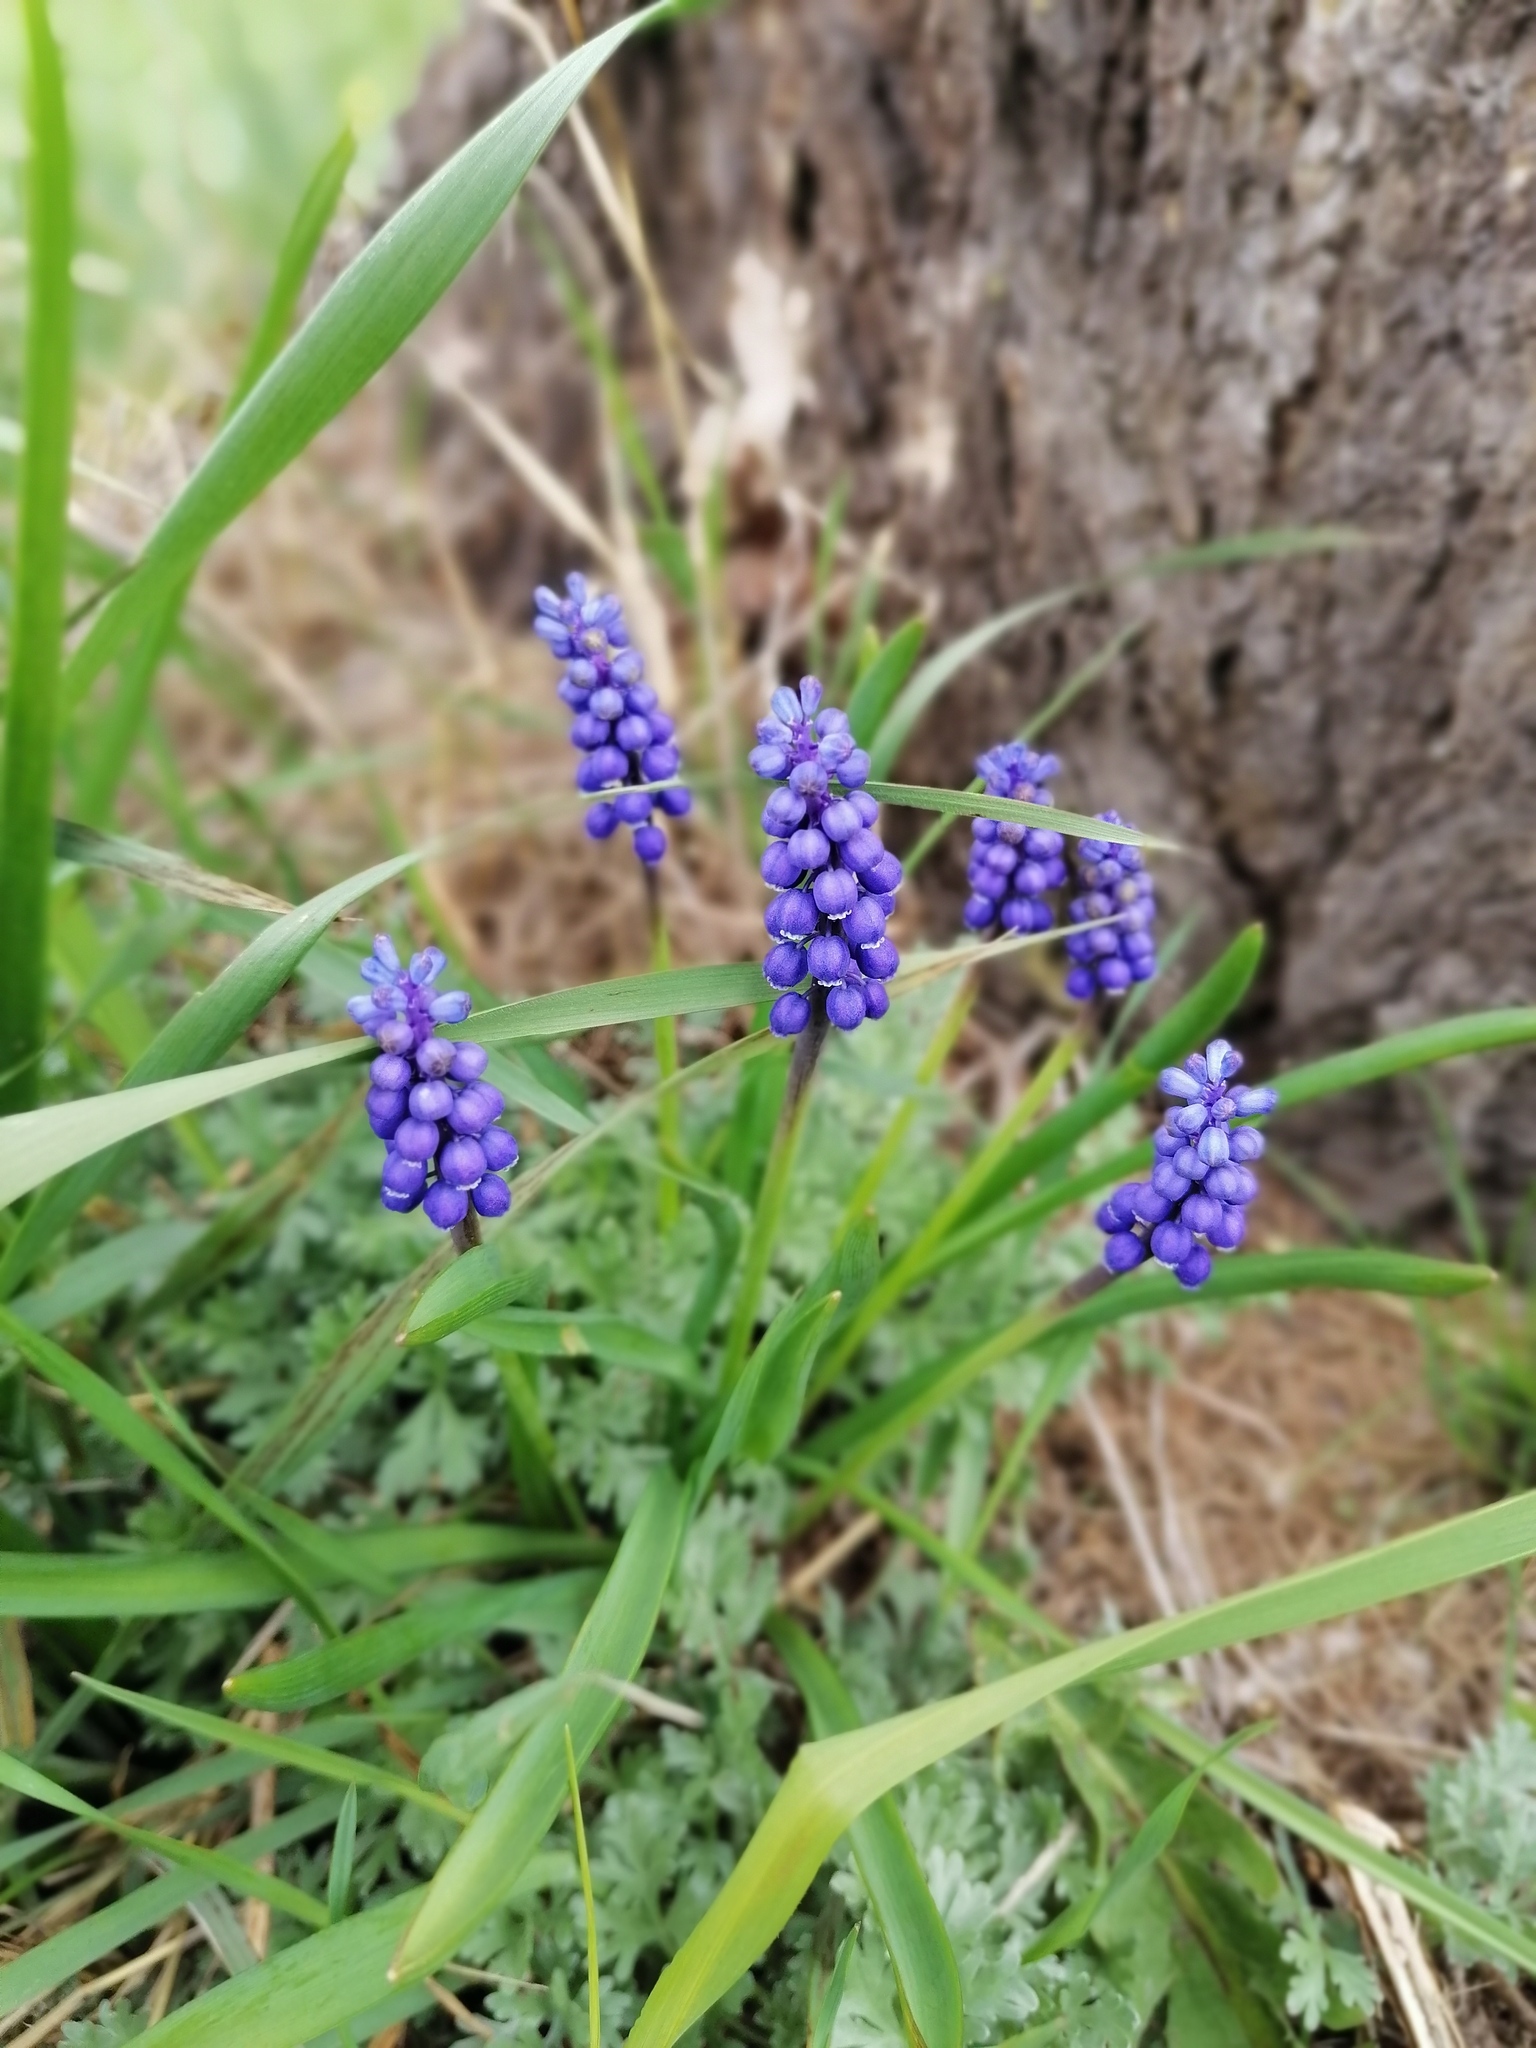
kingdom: Plantae
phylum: Tracheophyta
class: Liliopsida
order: Asparagales
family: Asparagaceae
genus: Muscari
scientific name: Muscari botryoides
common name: Compact grape-hyacinth
